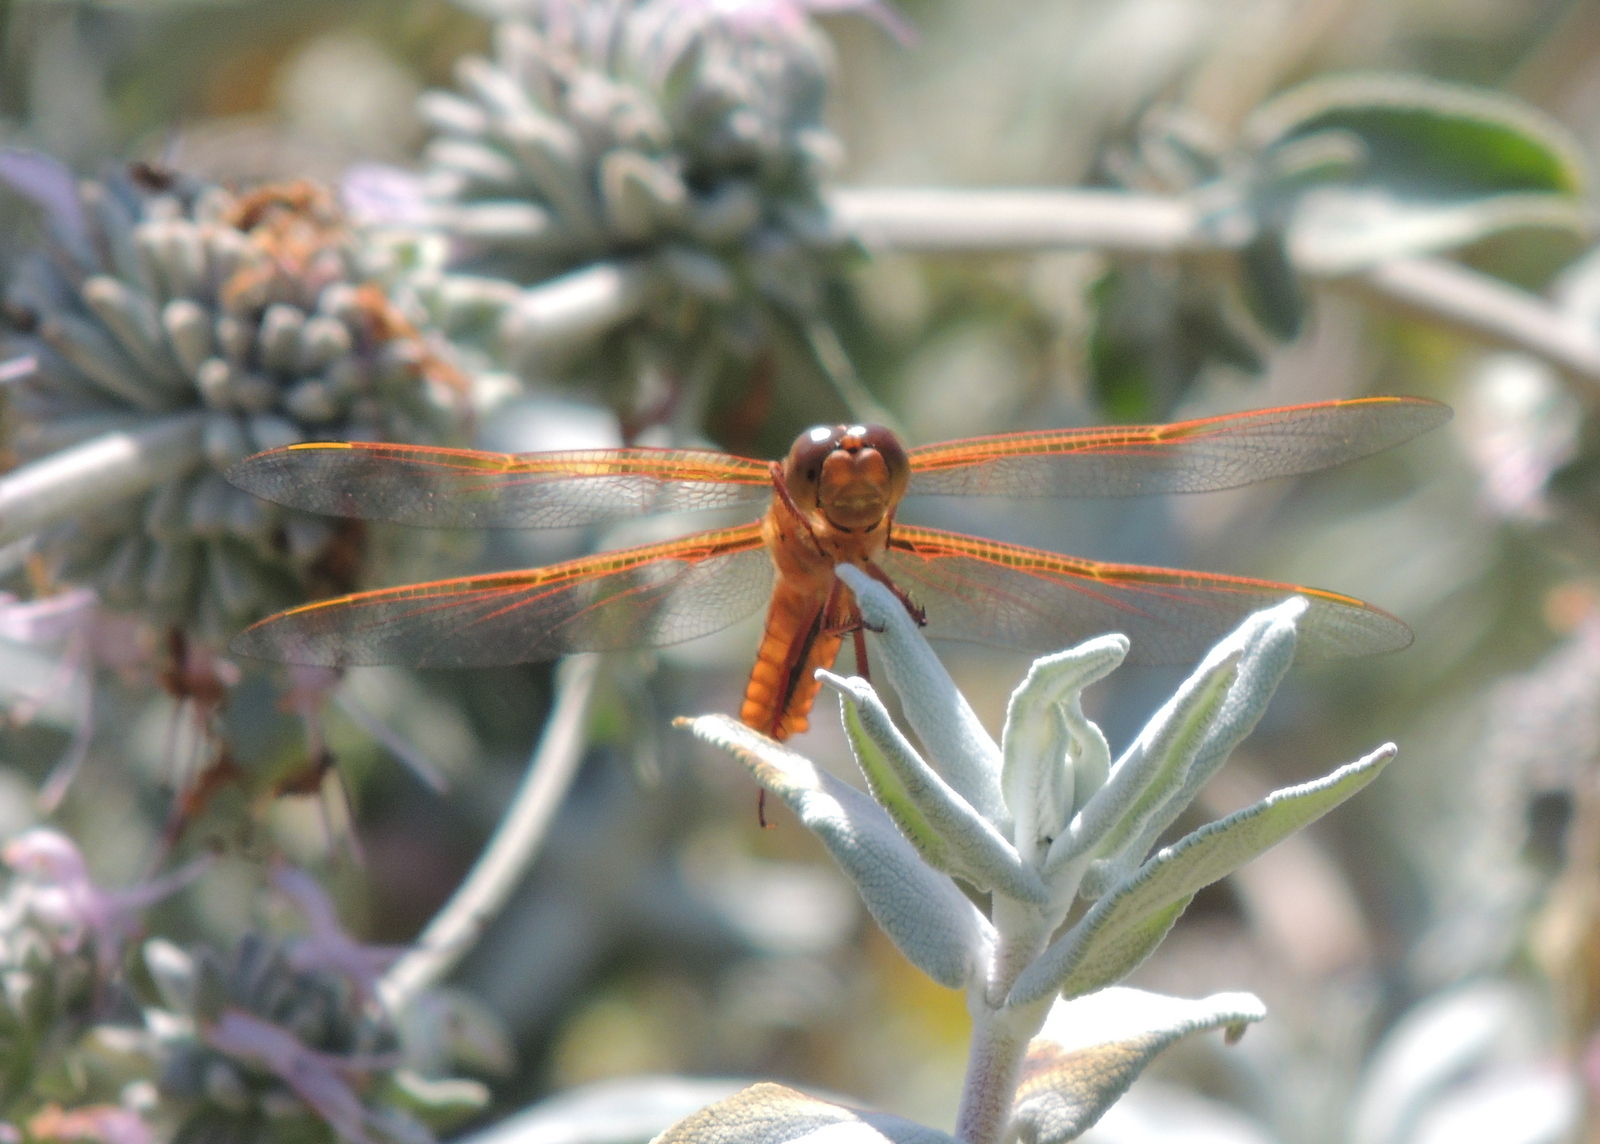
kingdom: Animalia
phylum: Arthropoda
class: Insecta
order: Odonata
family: Libellulidae
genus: Libellula
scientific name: Libellula saturata
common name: Flame skimmer
